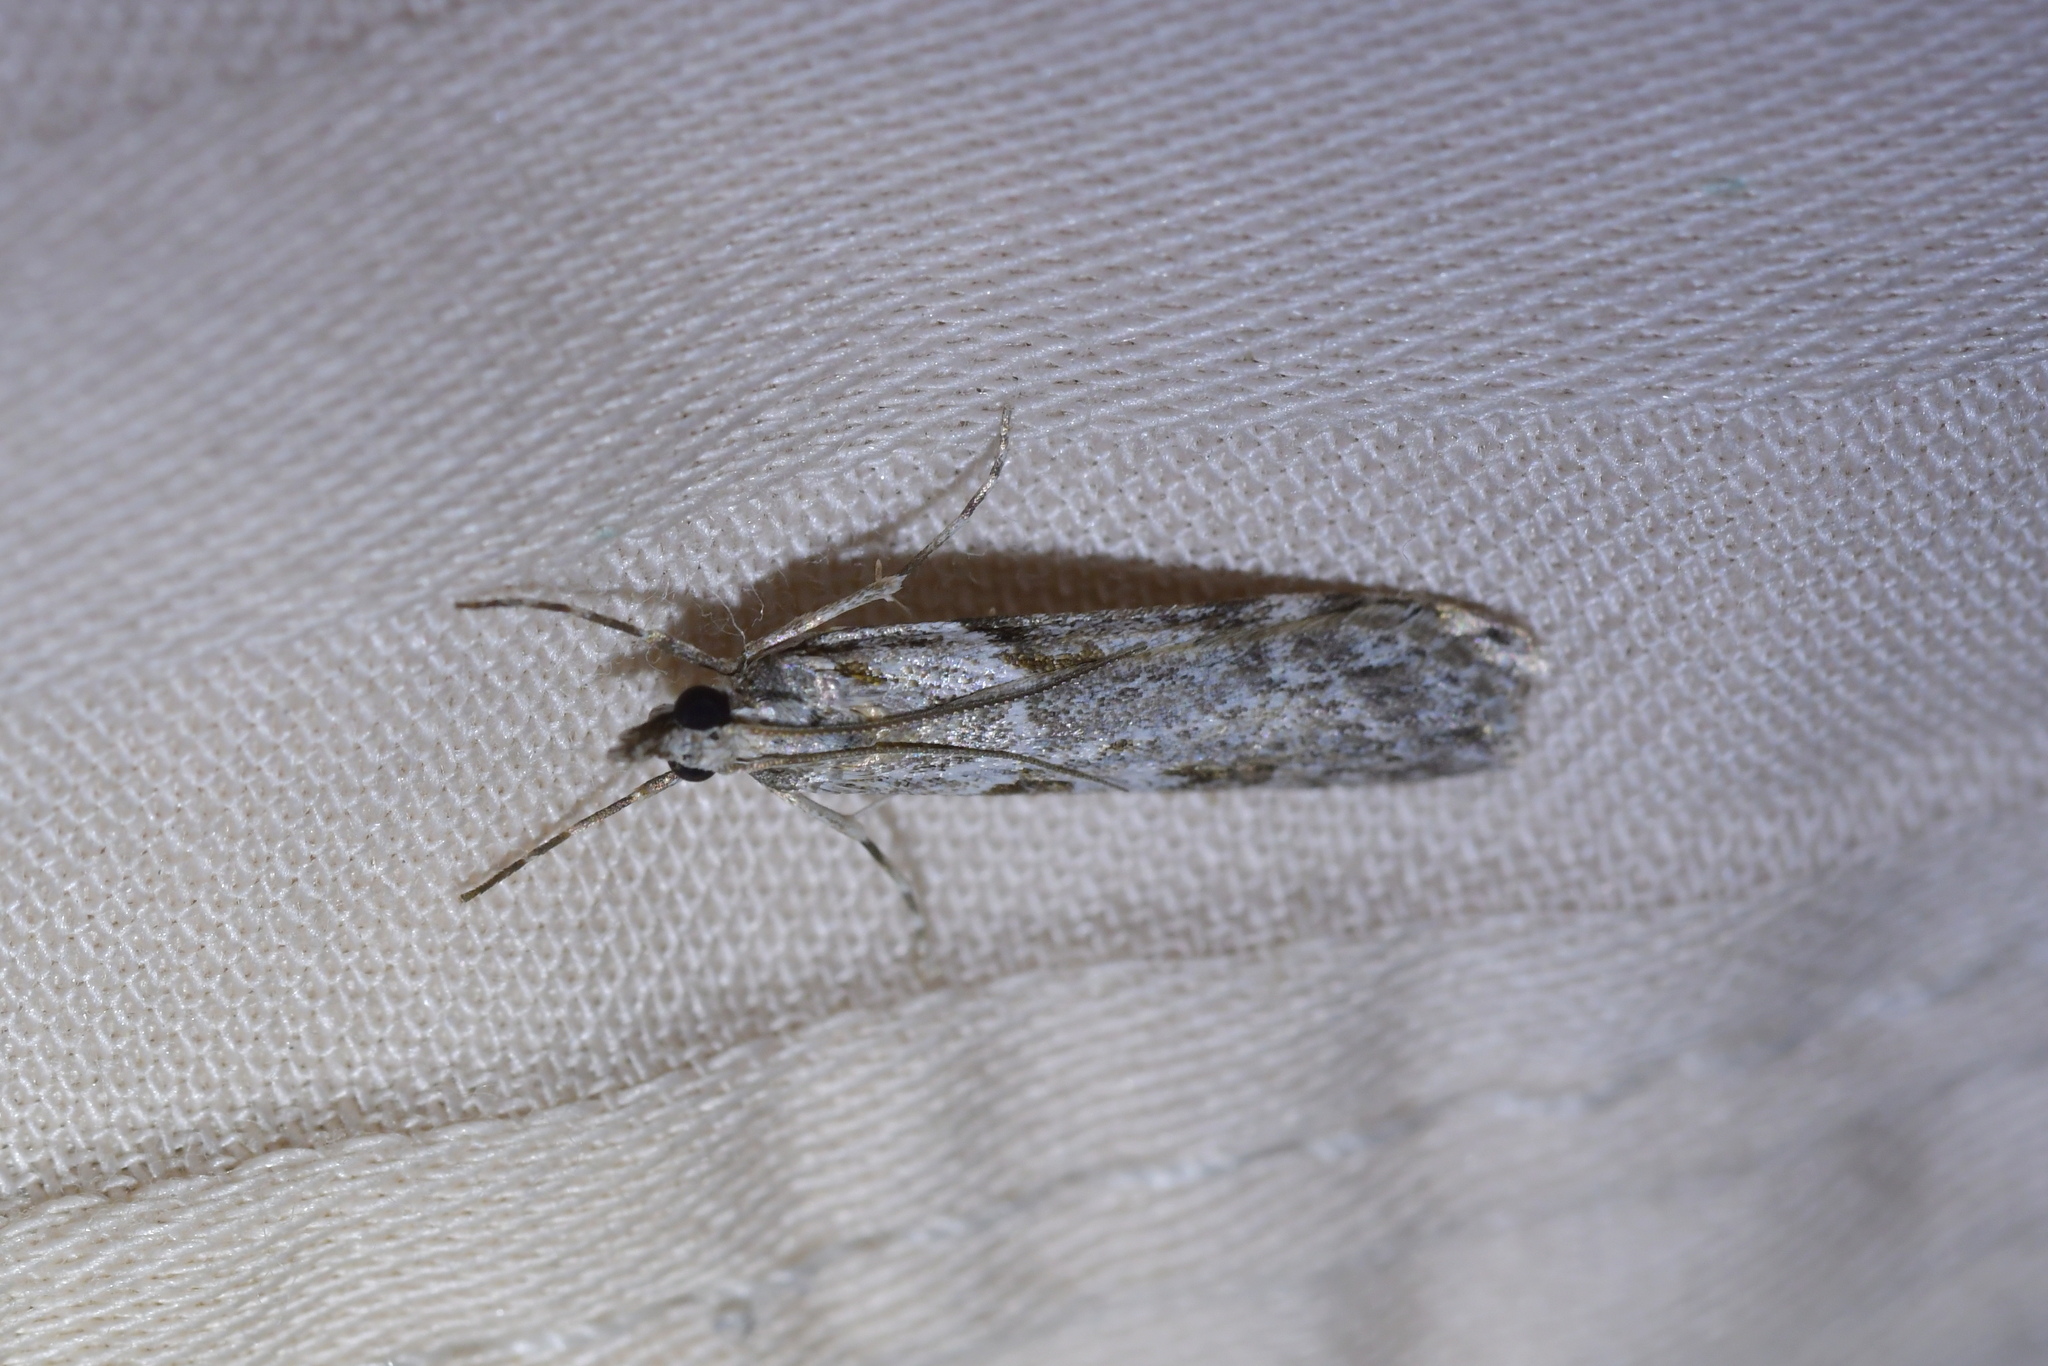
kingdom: Animalia
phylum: Arthropoda
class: Insecta
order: Lepidoptera
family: Crambidae
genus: Scoparia
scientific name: Scoparia halopis
